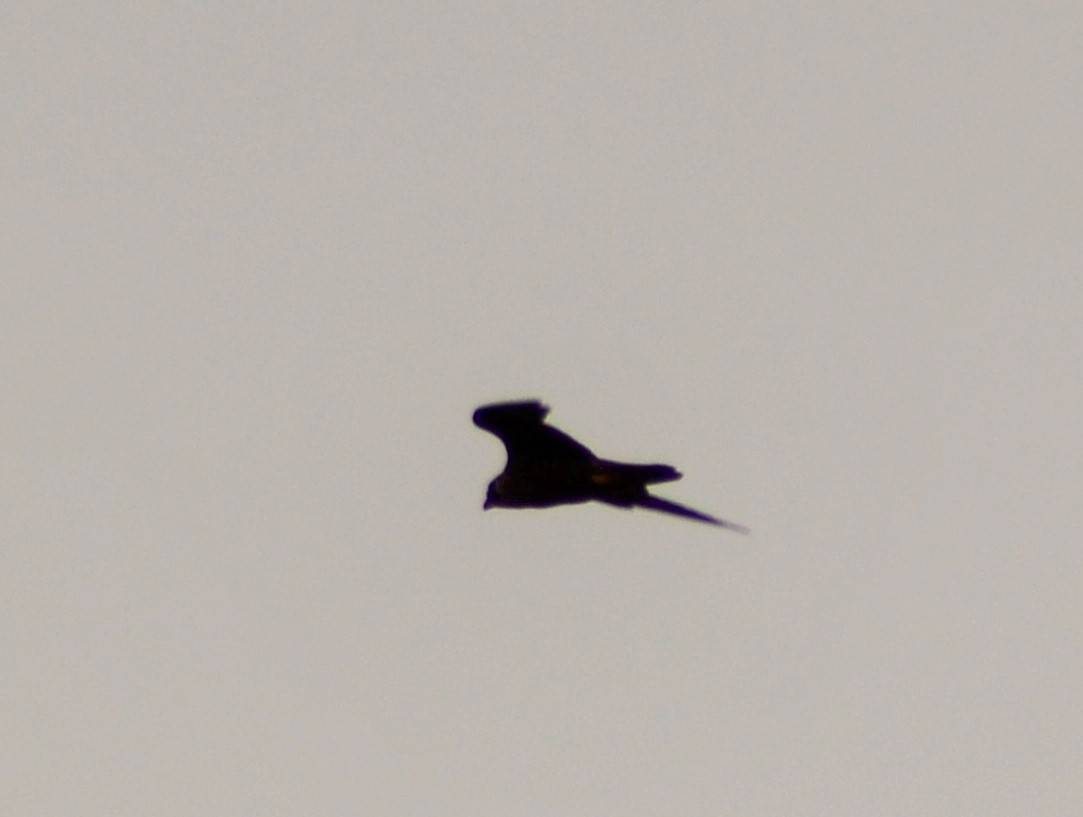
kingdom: Animalia
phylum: Chordata
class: Aves
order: Falconiformes
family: Falconidae
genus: Falco
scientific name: Falco peregrinus
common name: Peregrine falcon
